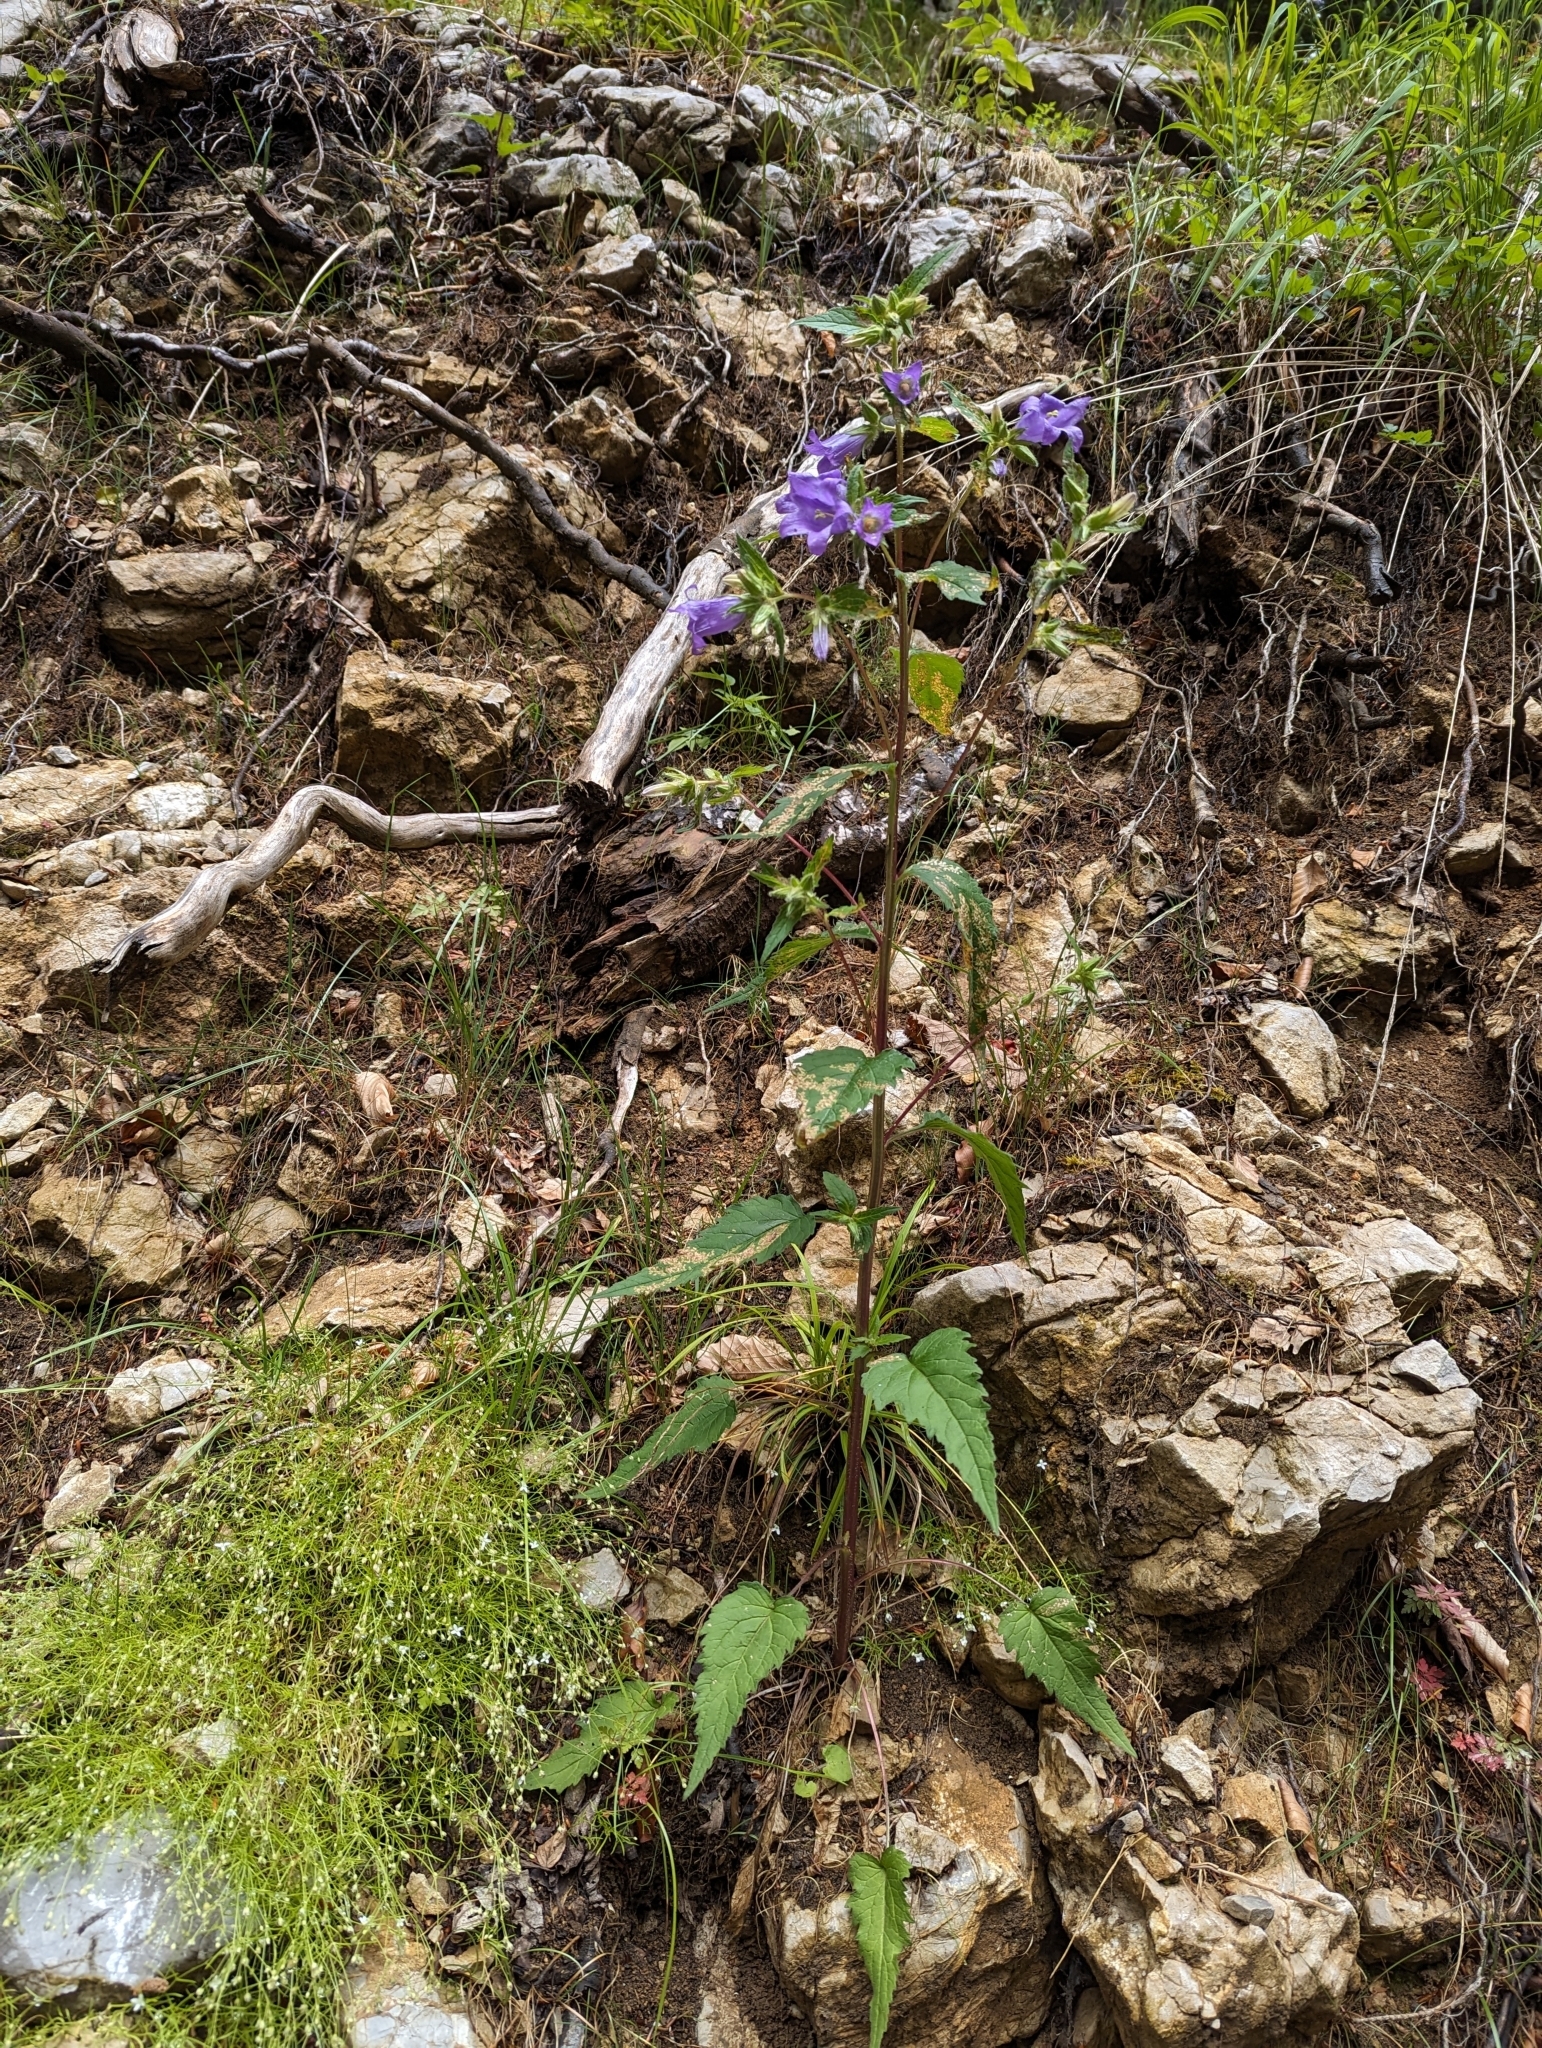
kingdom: Plantae
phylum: Tracheophyta
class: Magnoliopsida
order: Asterales
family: Campanulaceae
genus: Campanula
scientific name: Campanula trachelium
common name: Nettle-leaved bellflower
